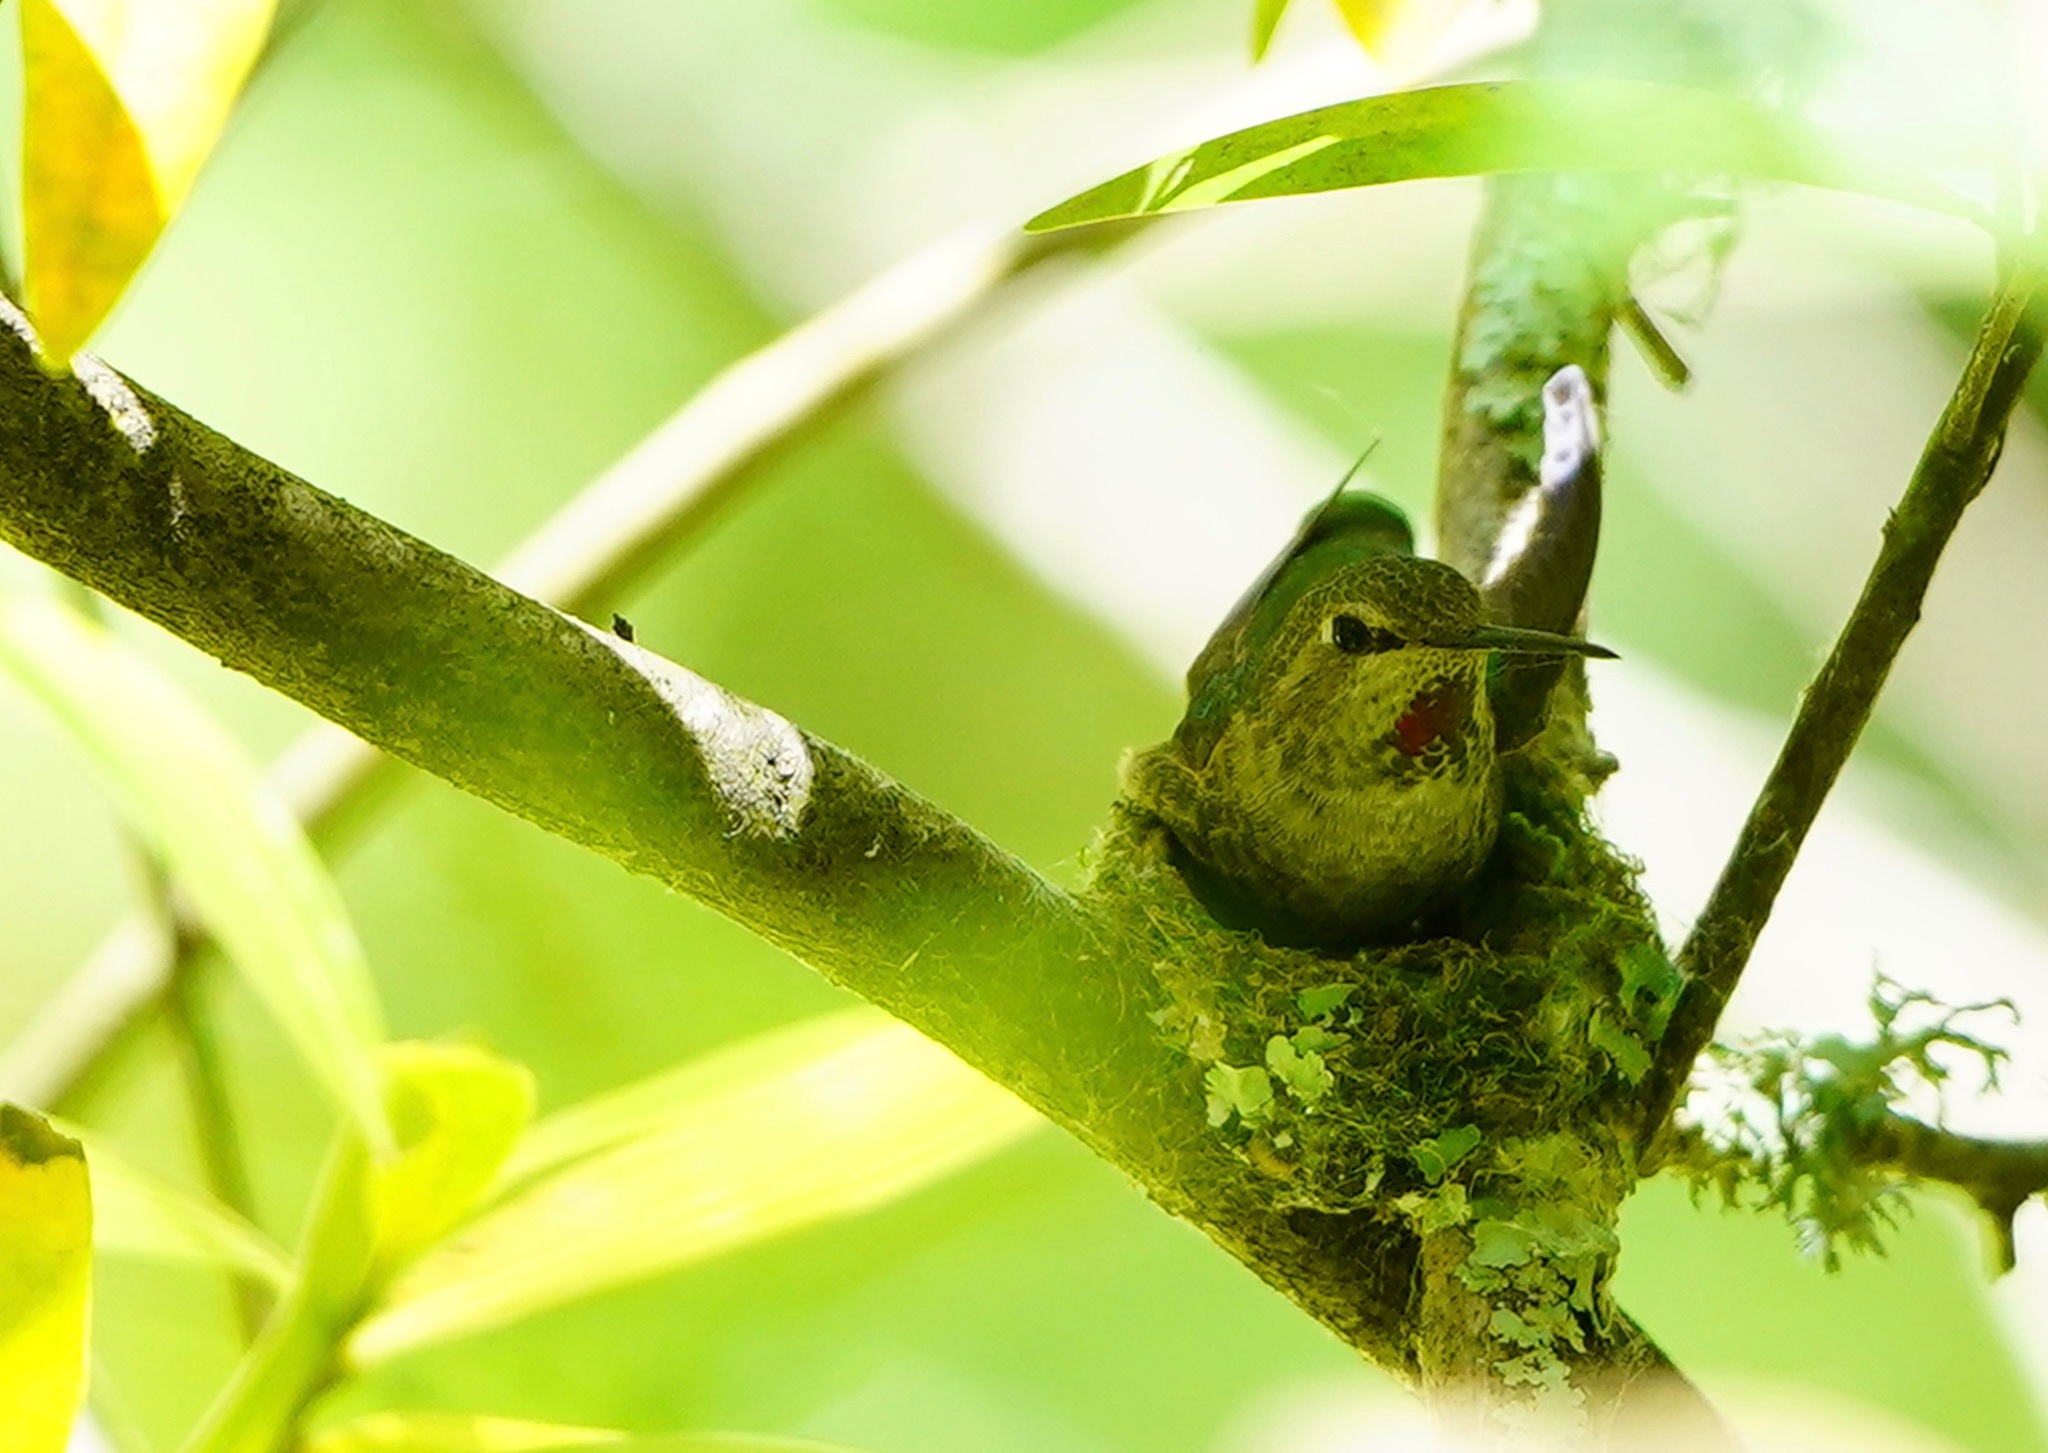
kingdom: Animalia
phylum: Chordata
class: Aves
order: Apodiformes
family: Trochilidae
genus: Calypte
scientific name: Calypte anna
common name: Anna's hummingbird
